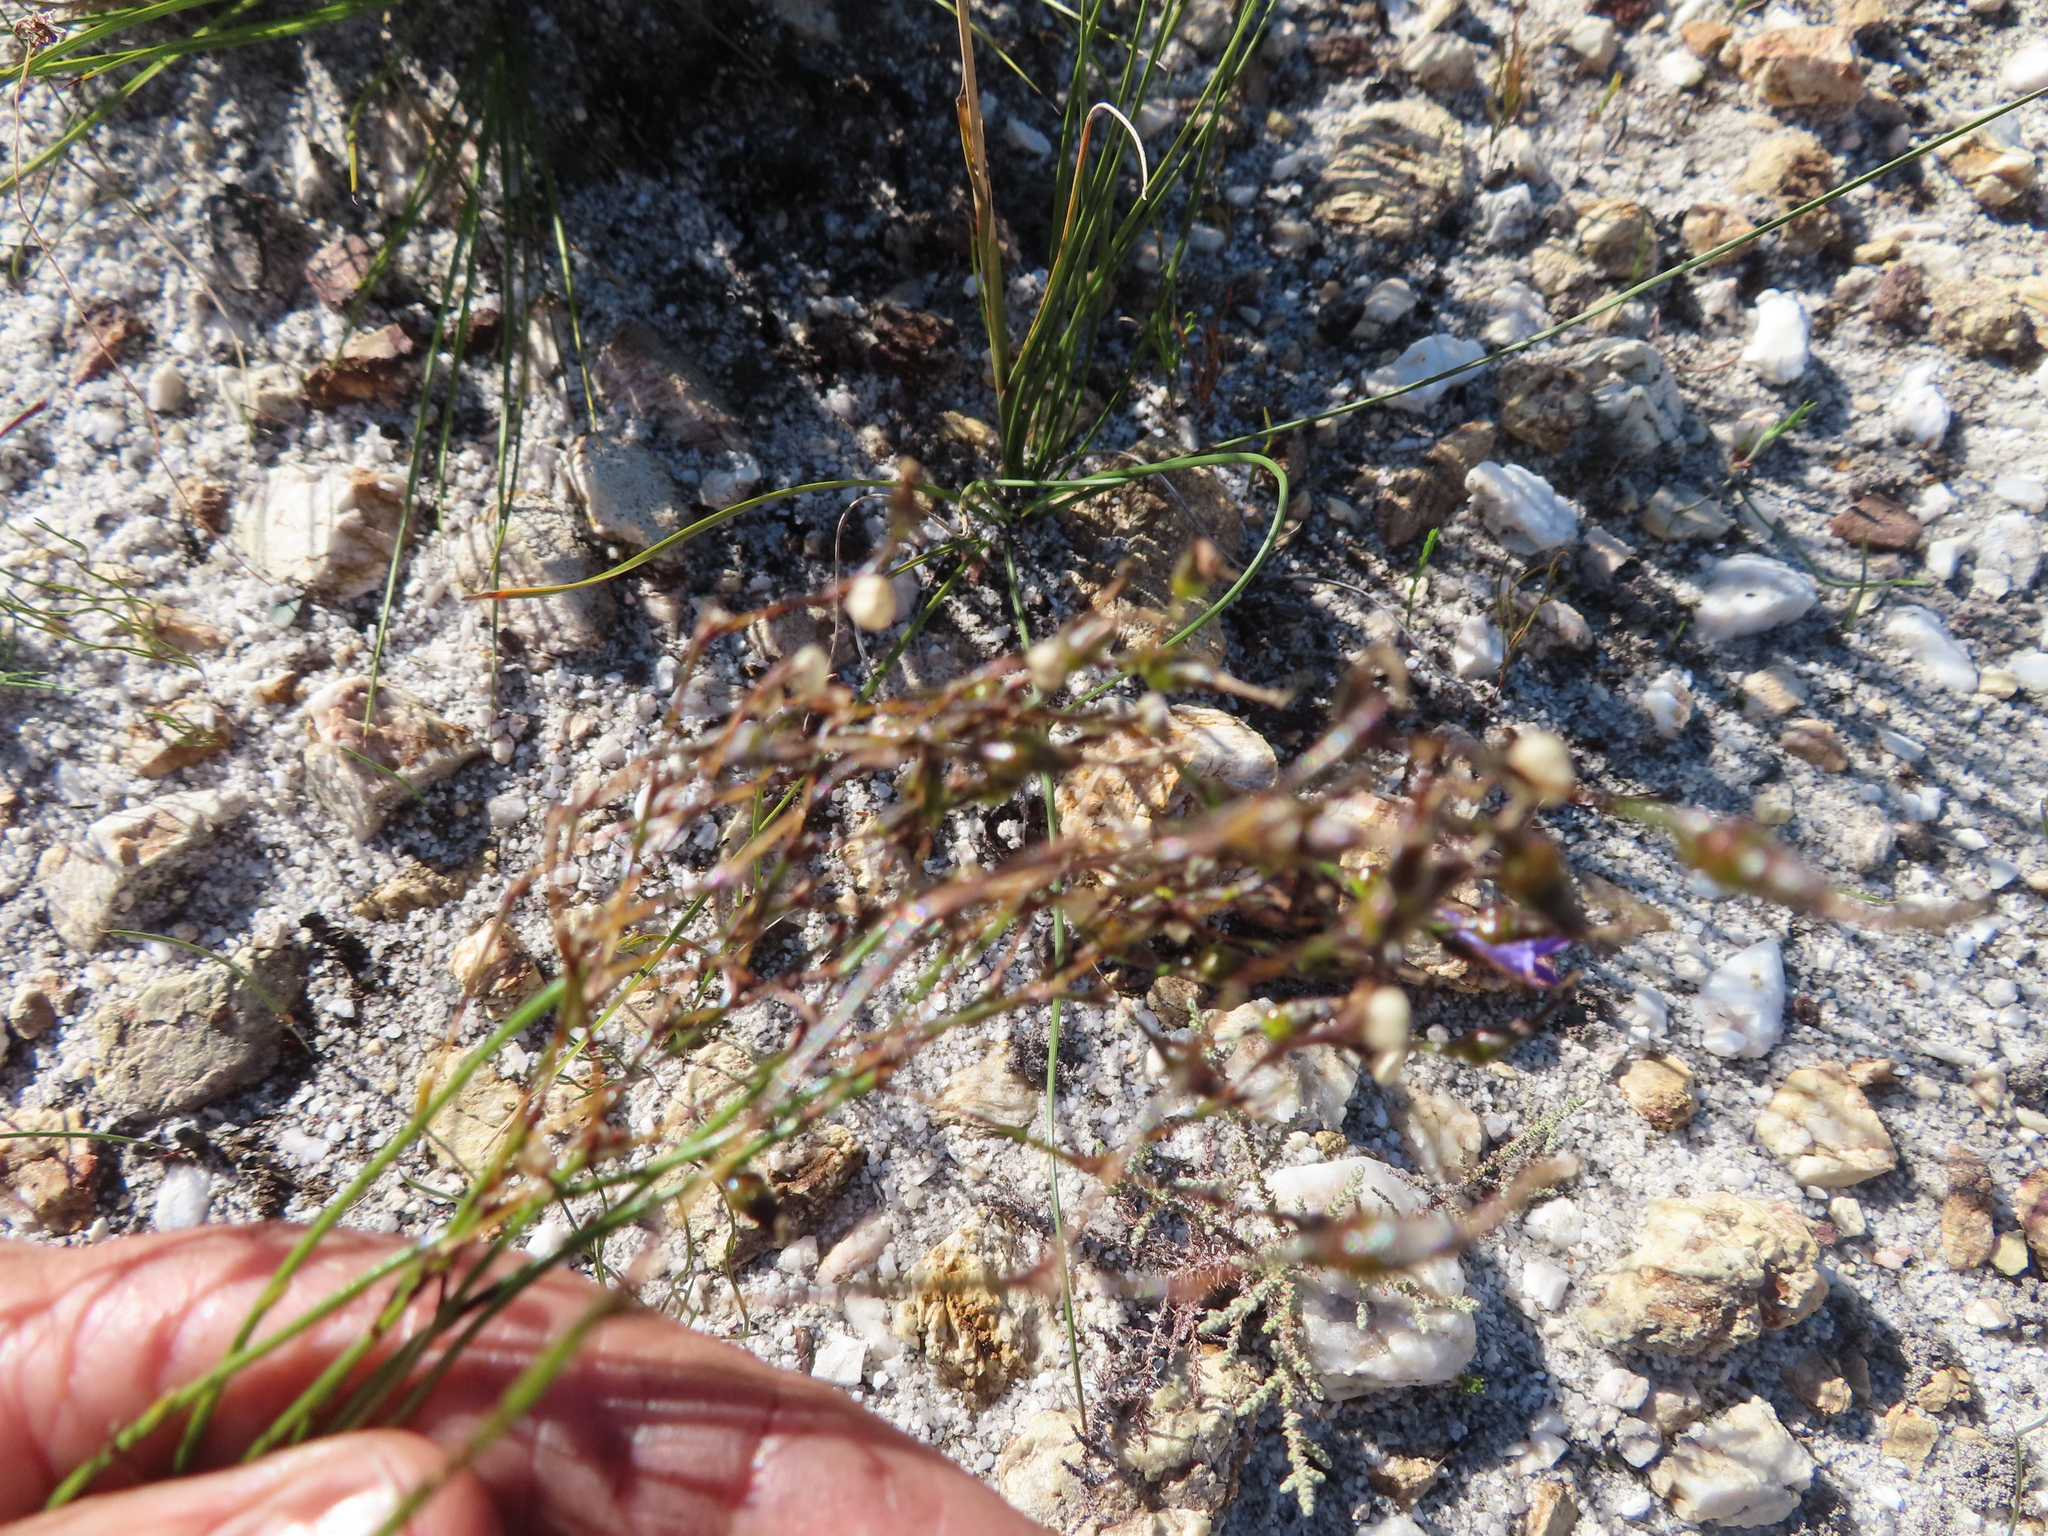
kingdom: Plantae
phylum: Tracheophyta
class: Magnoliopsida
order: Asterales
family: Campanulaceae
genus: Siphocodon
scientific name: Siphocodon spartioides
